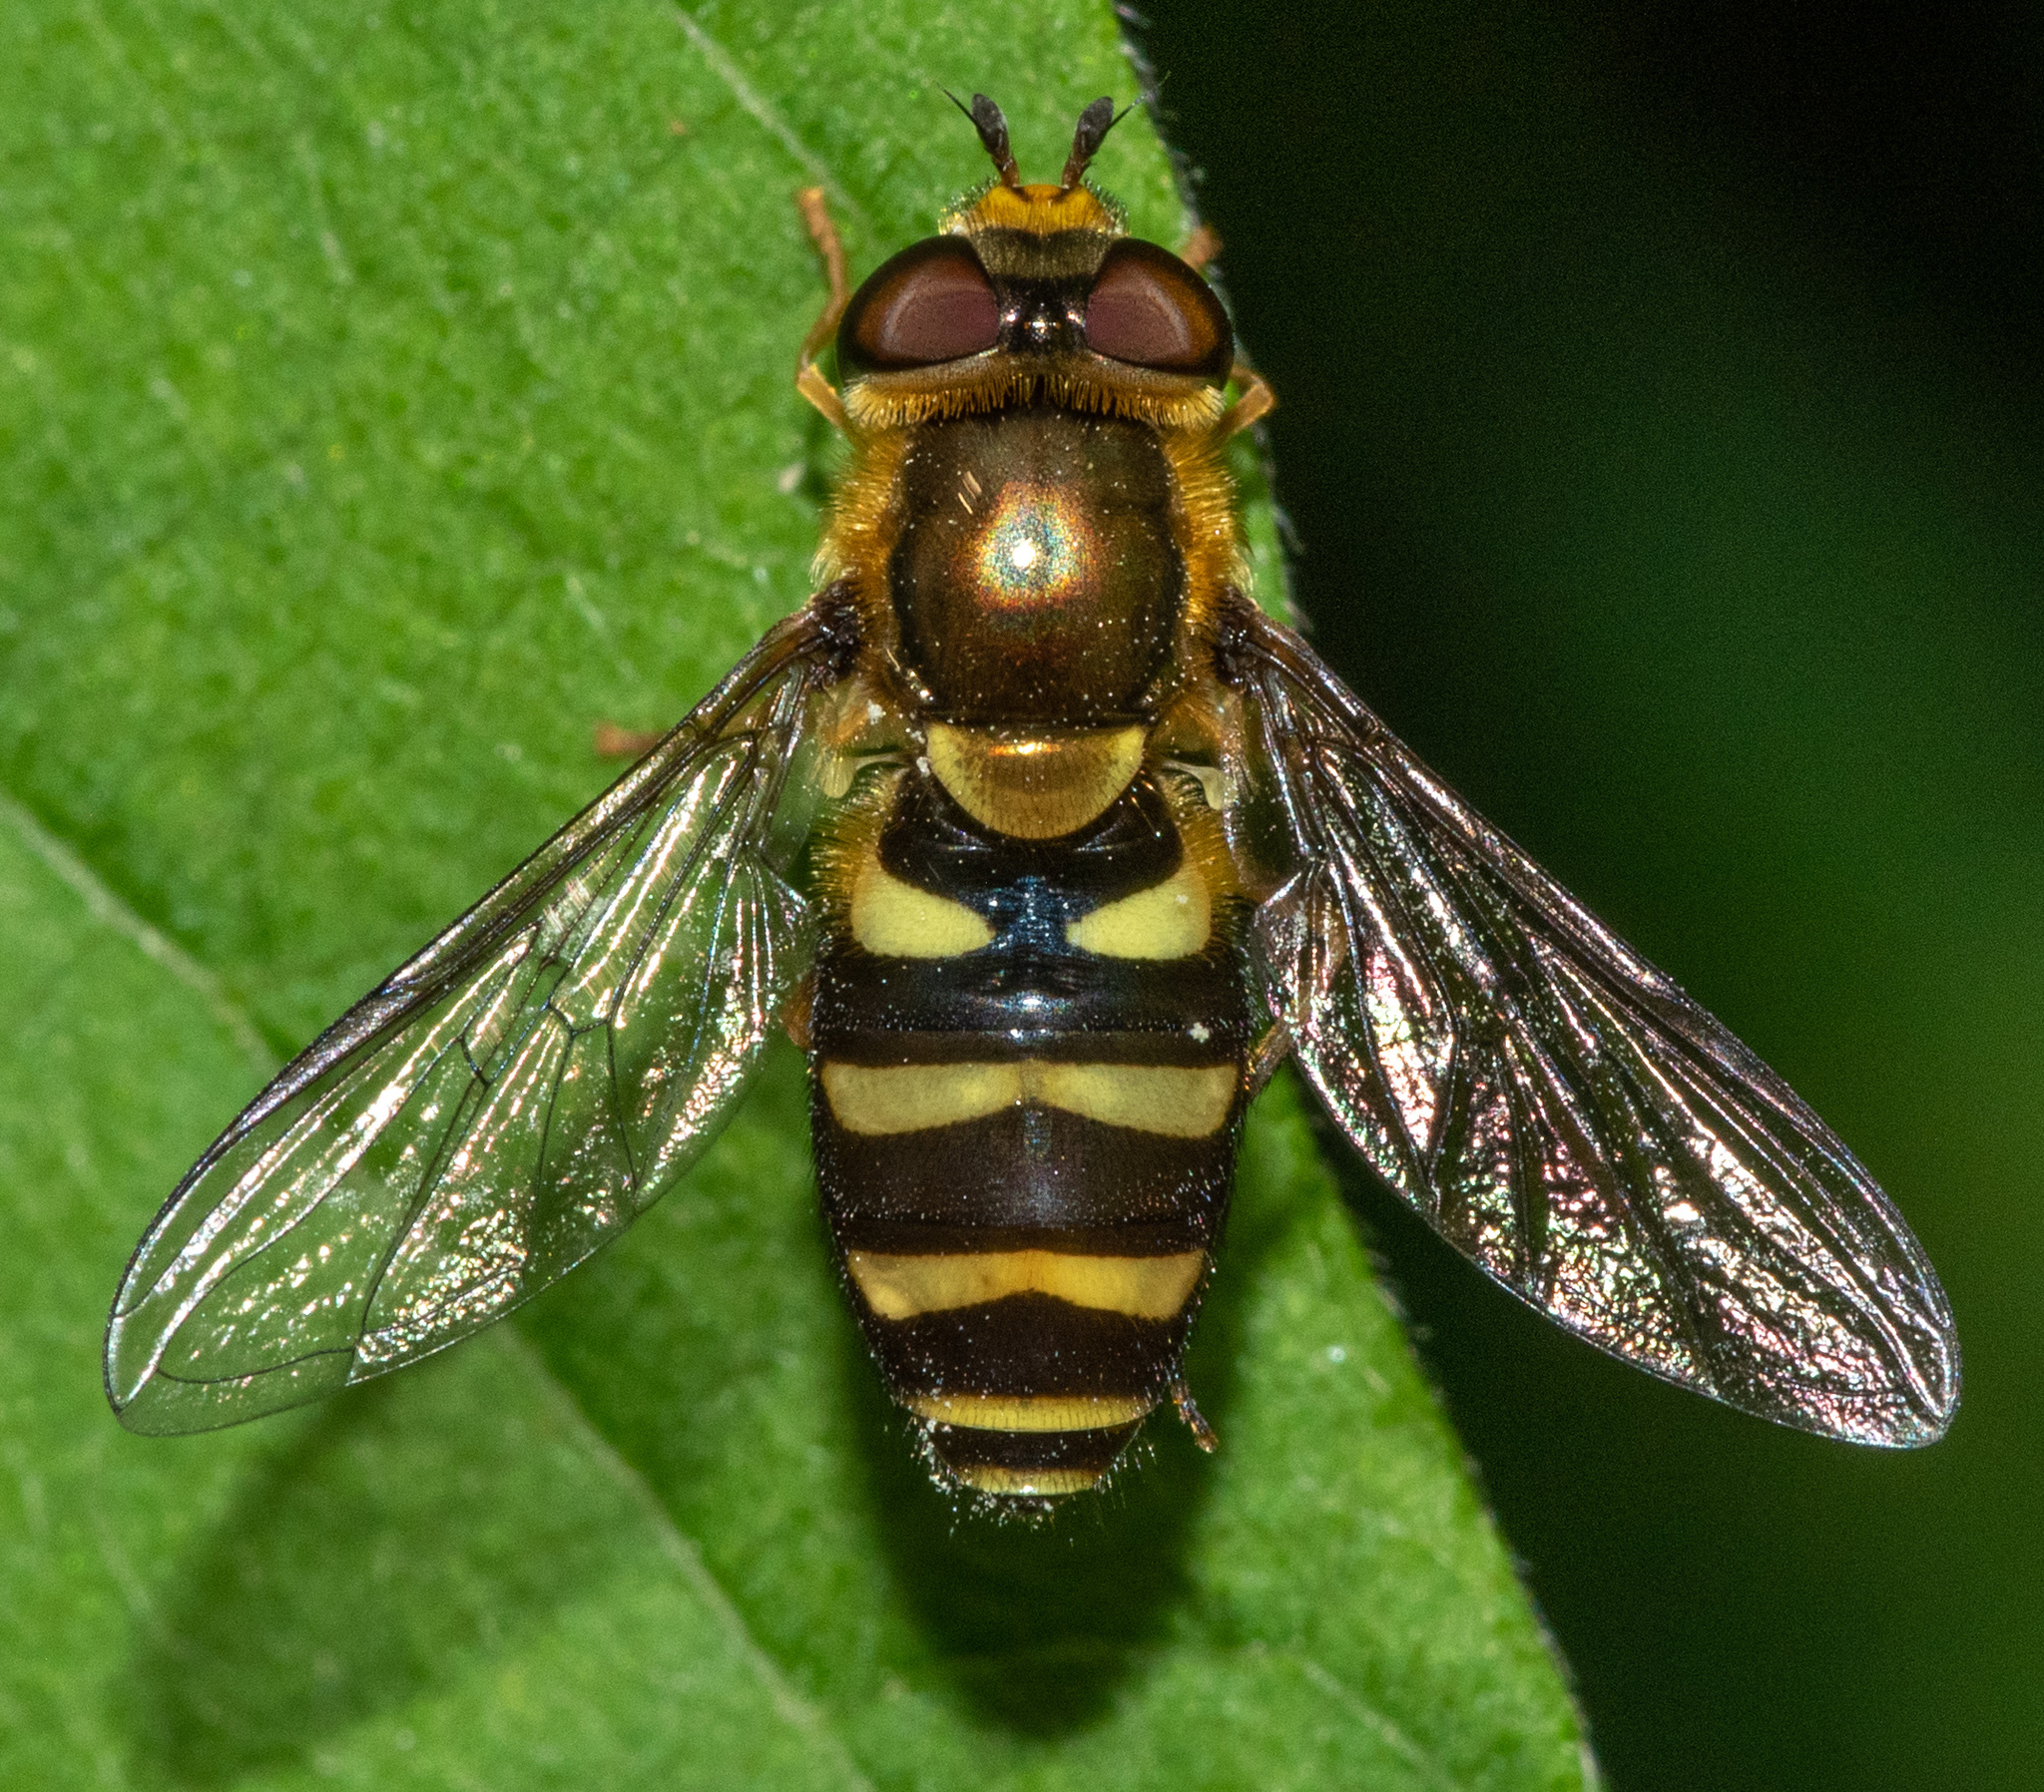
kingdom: Animalia
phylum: Arthropoda
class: Insecta
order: Diptera
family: Syrphidae
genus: Syrphus
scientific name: Syrphus opinator
